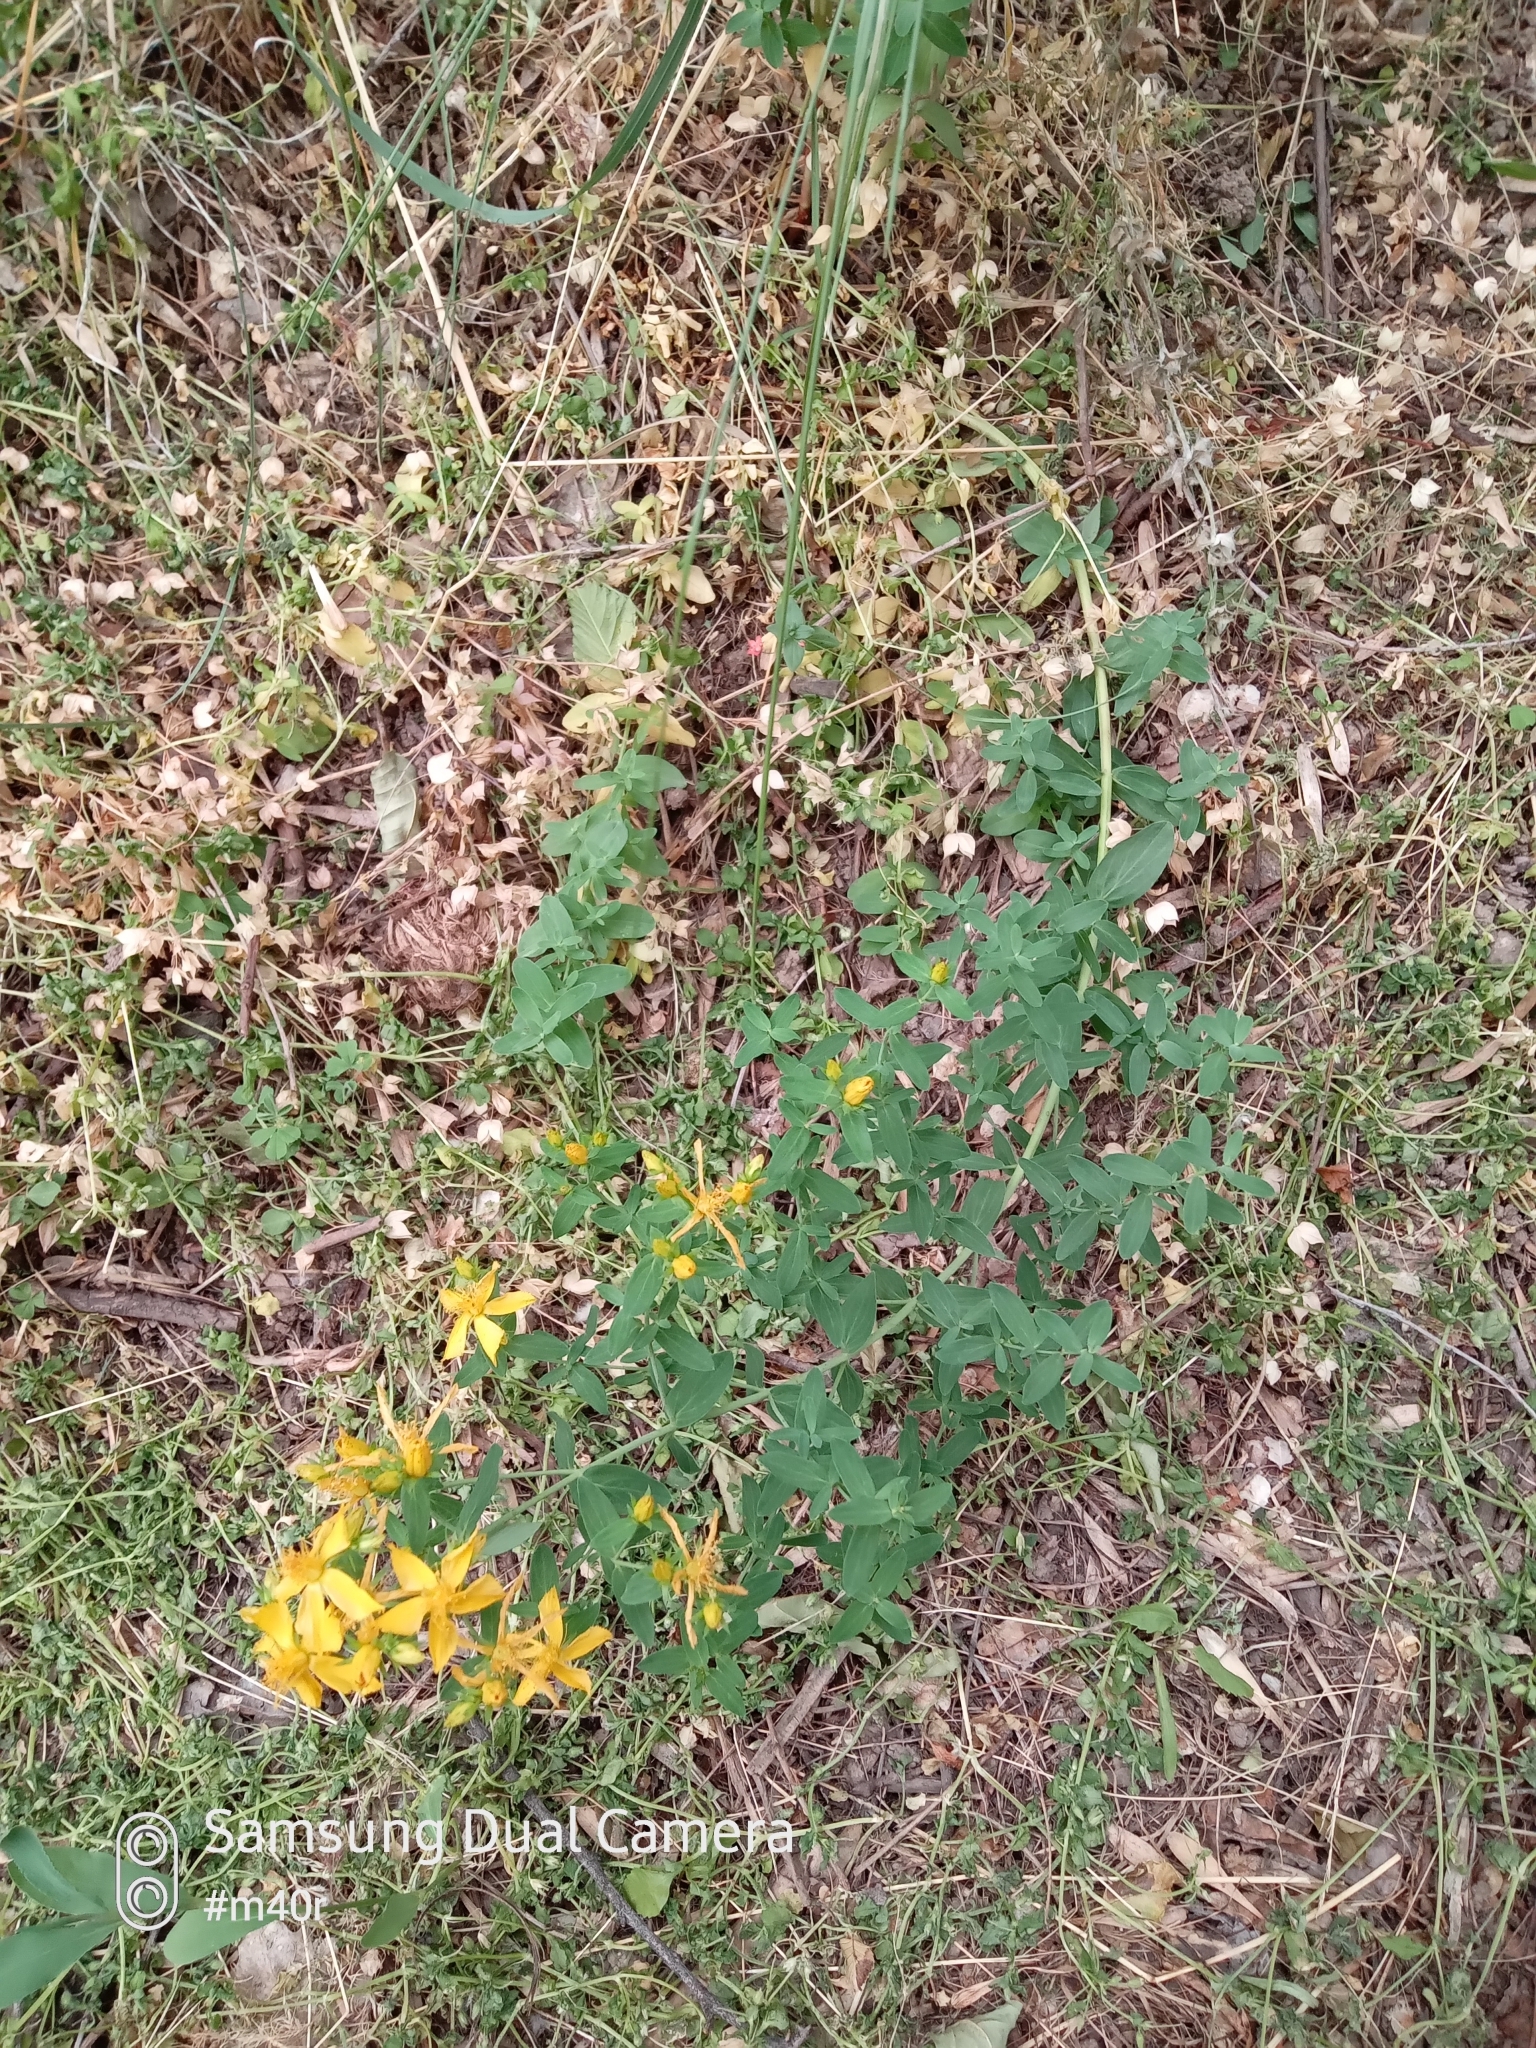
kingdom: Plantae
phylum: Tracheophyta
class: Magnoliopsida
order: Malpighiales
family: Hypericaceae
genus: Hypericum
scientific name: Hypericum perforatum
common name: Common st. johnswort
